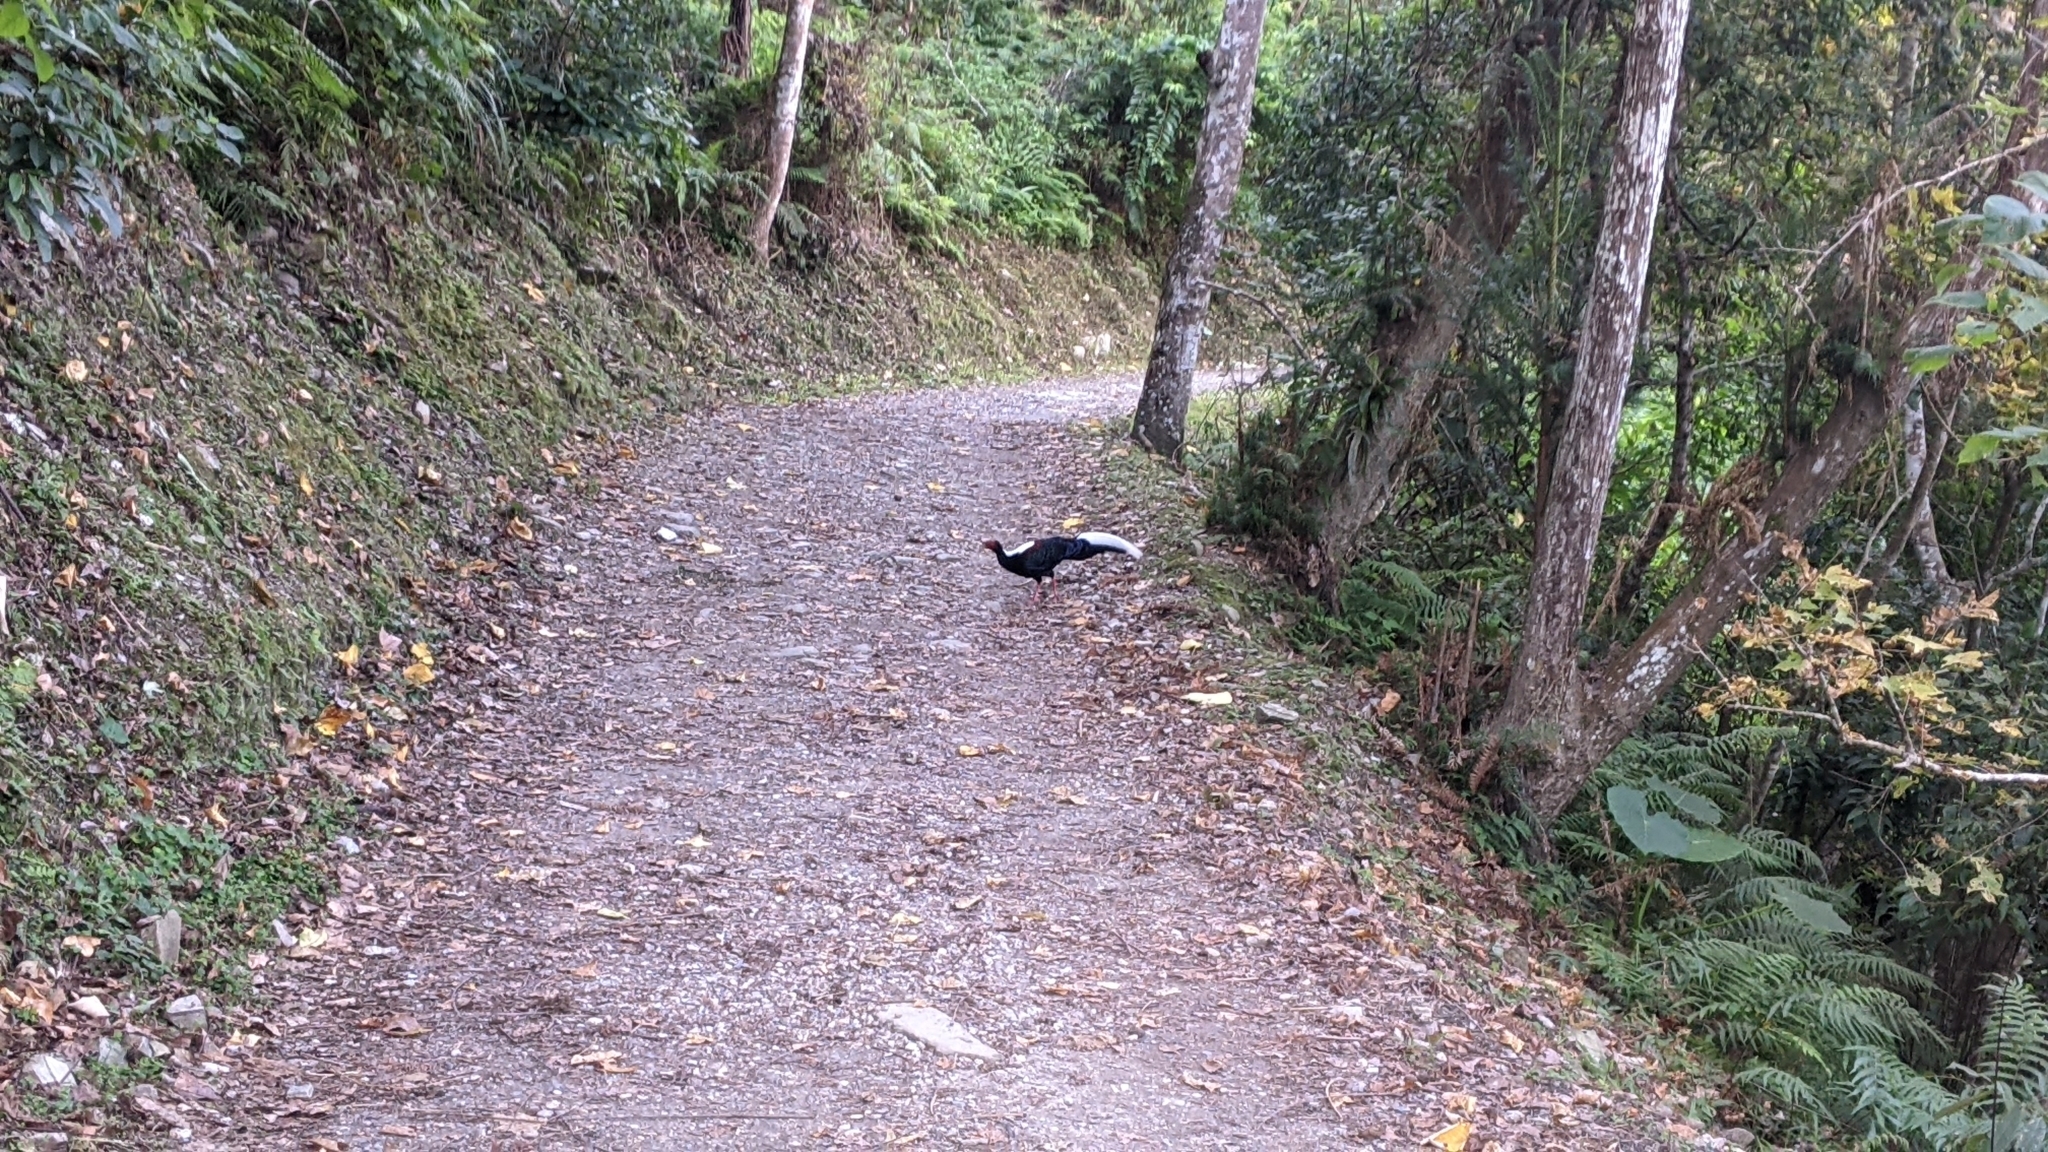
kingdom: Animalia
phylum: Chordata
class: Aves
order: Galliformes
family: Phasianidae
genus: Lophura
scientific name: Lophura swinhoii
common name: Swinhoe's pheasant
